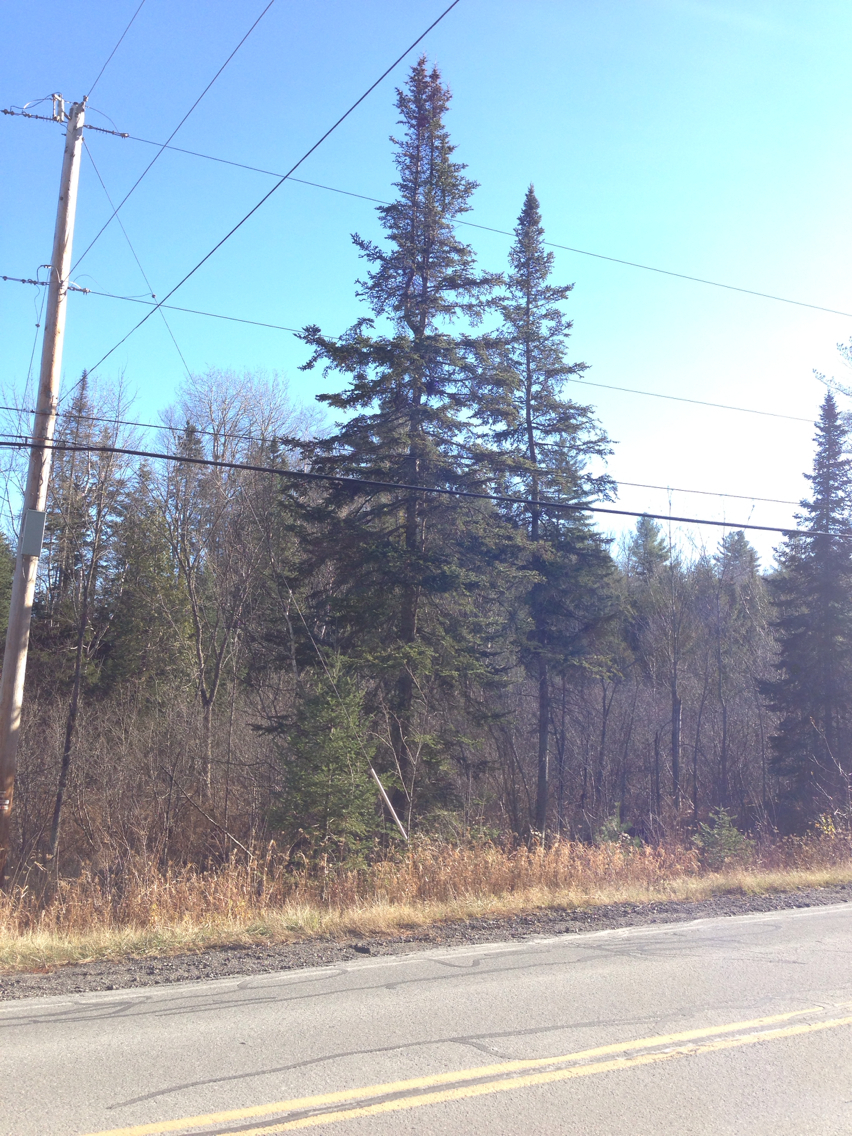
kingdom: Plantae
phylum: Tracheophyta
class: Pinopsida
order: Pinales
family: Pinaceae
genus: Abies
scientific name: Abies balsamea
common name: Balsam fir
